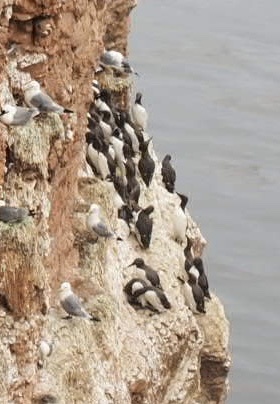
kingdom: Animalia
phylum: Chordata
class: Aves
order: Charadriiformes
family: Alcidae
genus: Uria
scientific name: Uria aalge
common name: Common murre
